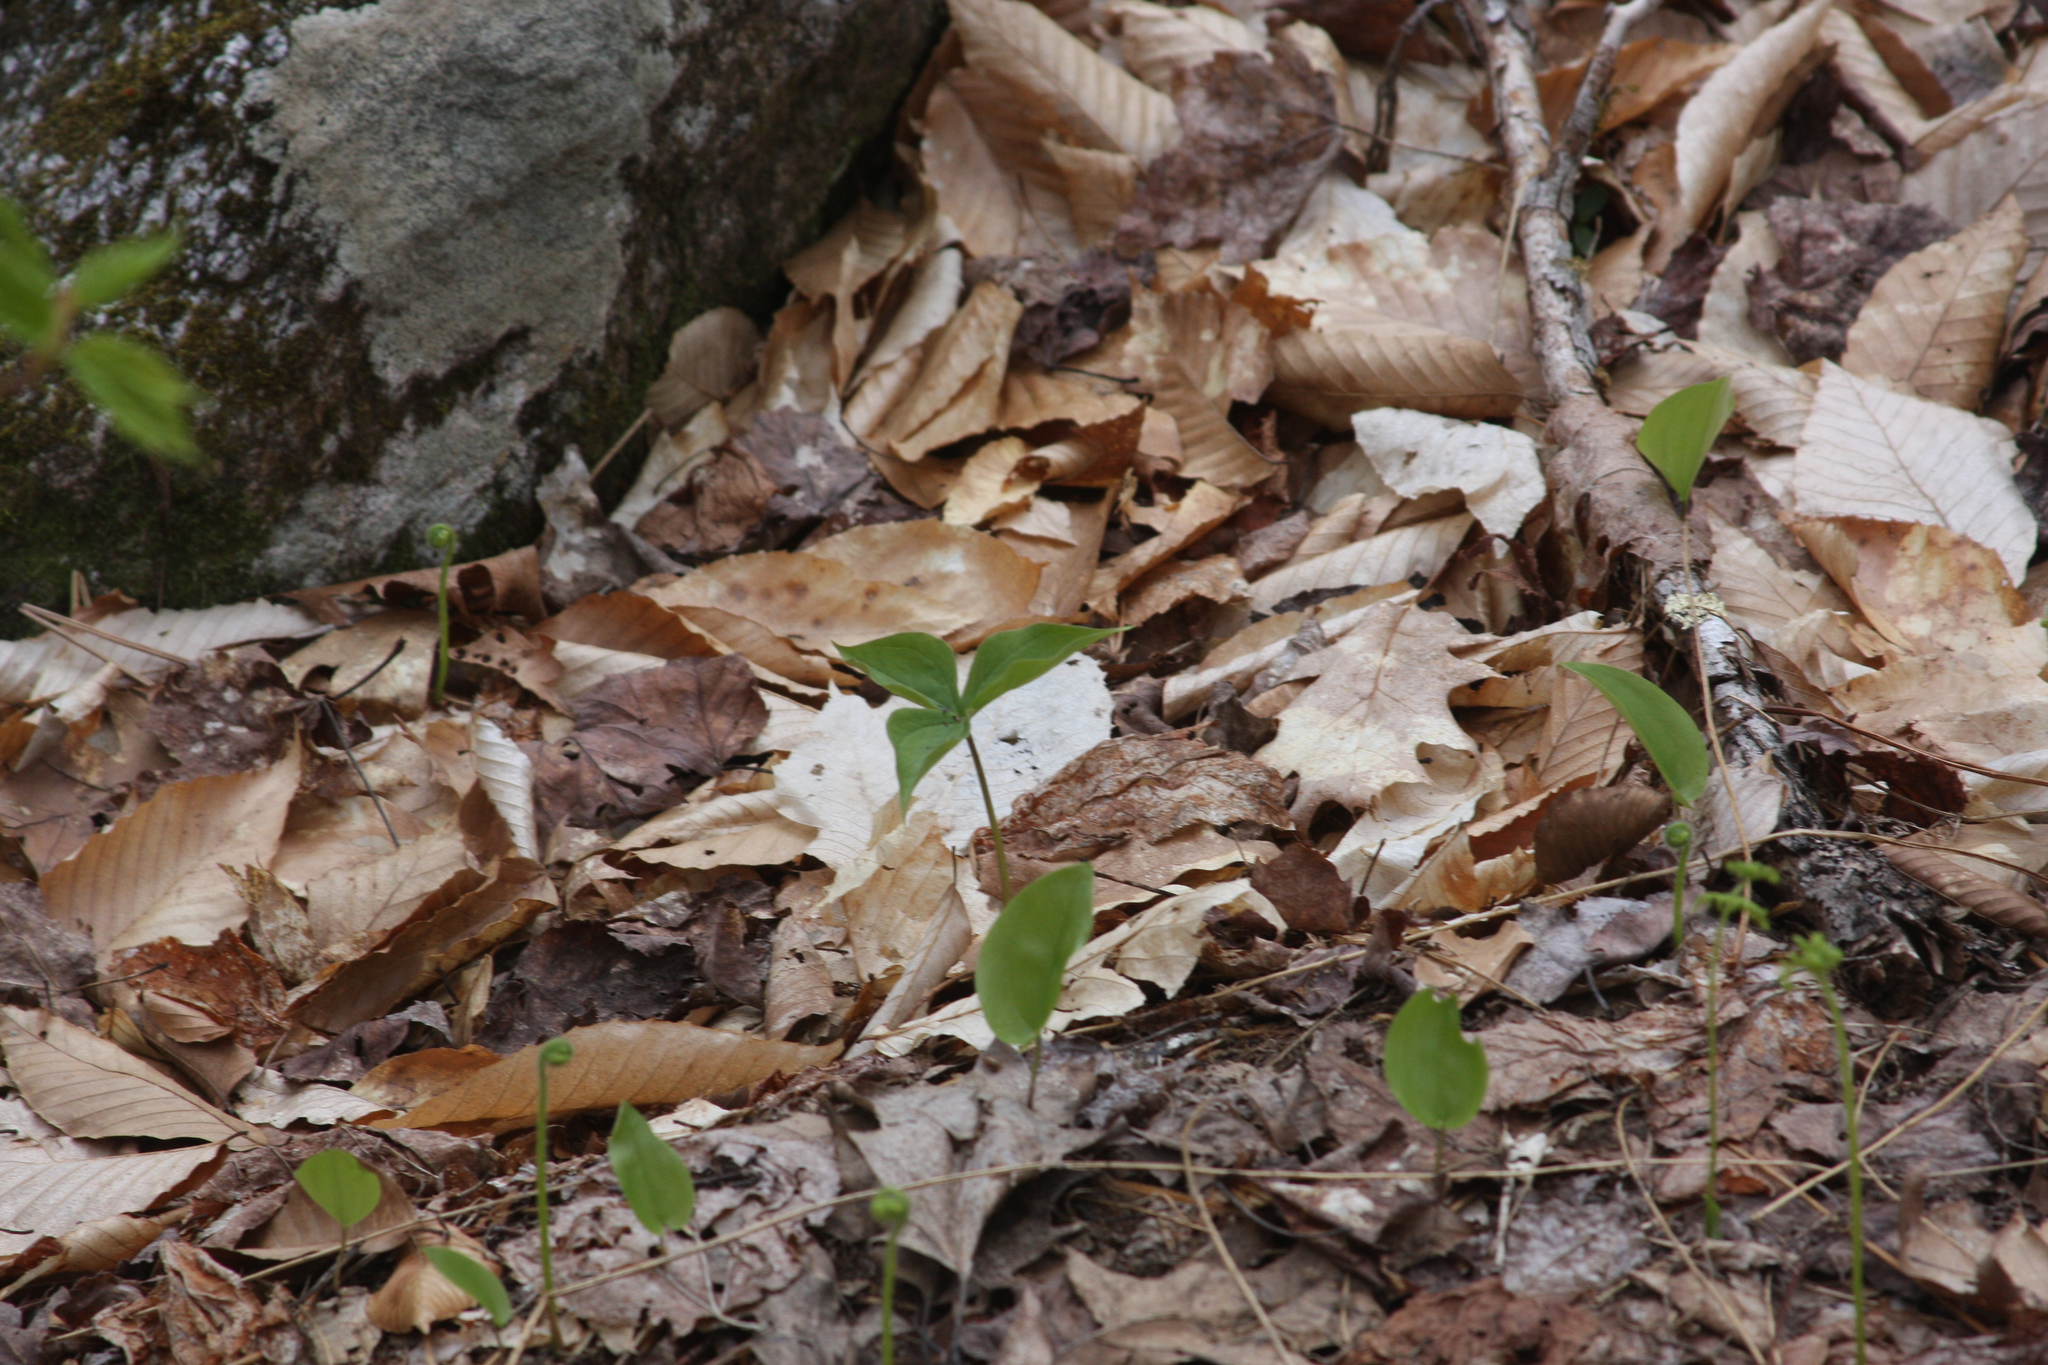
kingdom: Plantae
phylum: Tracheophyta
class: Liliopsida
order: Asparagales
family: Asparagaceae
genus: Maianthemum
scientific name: Maianthemum canadense
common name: False lily-of-the-valley
